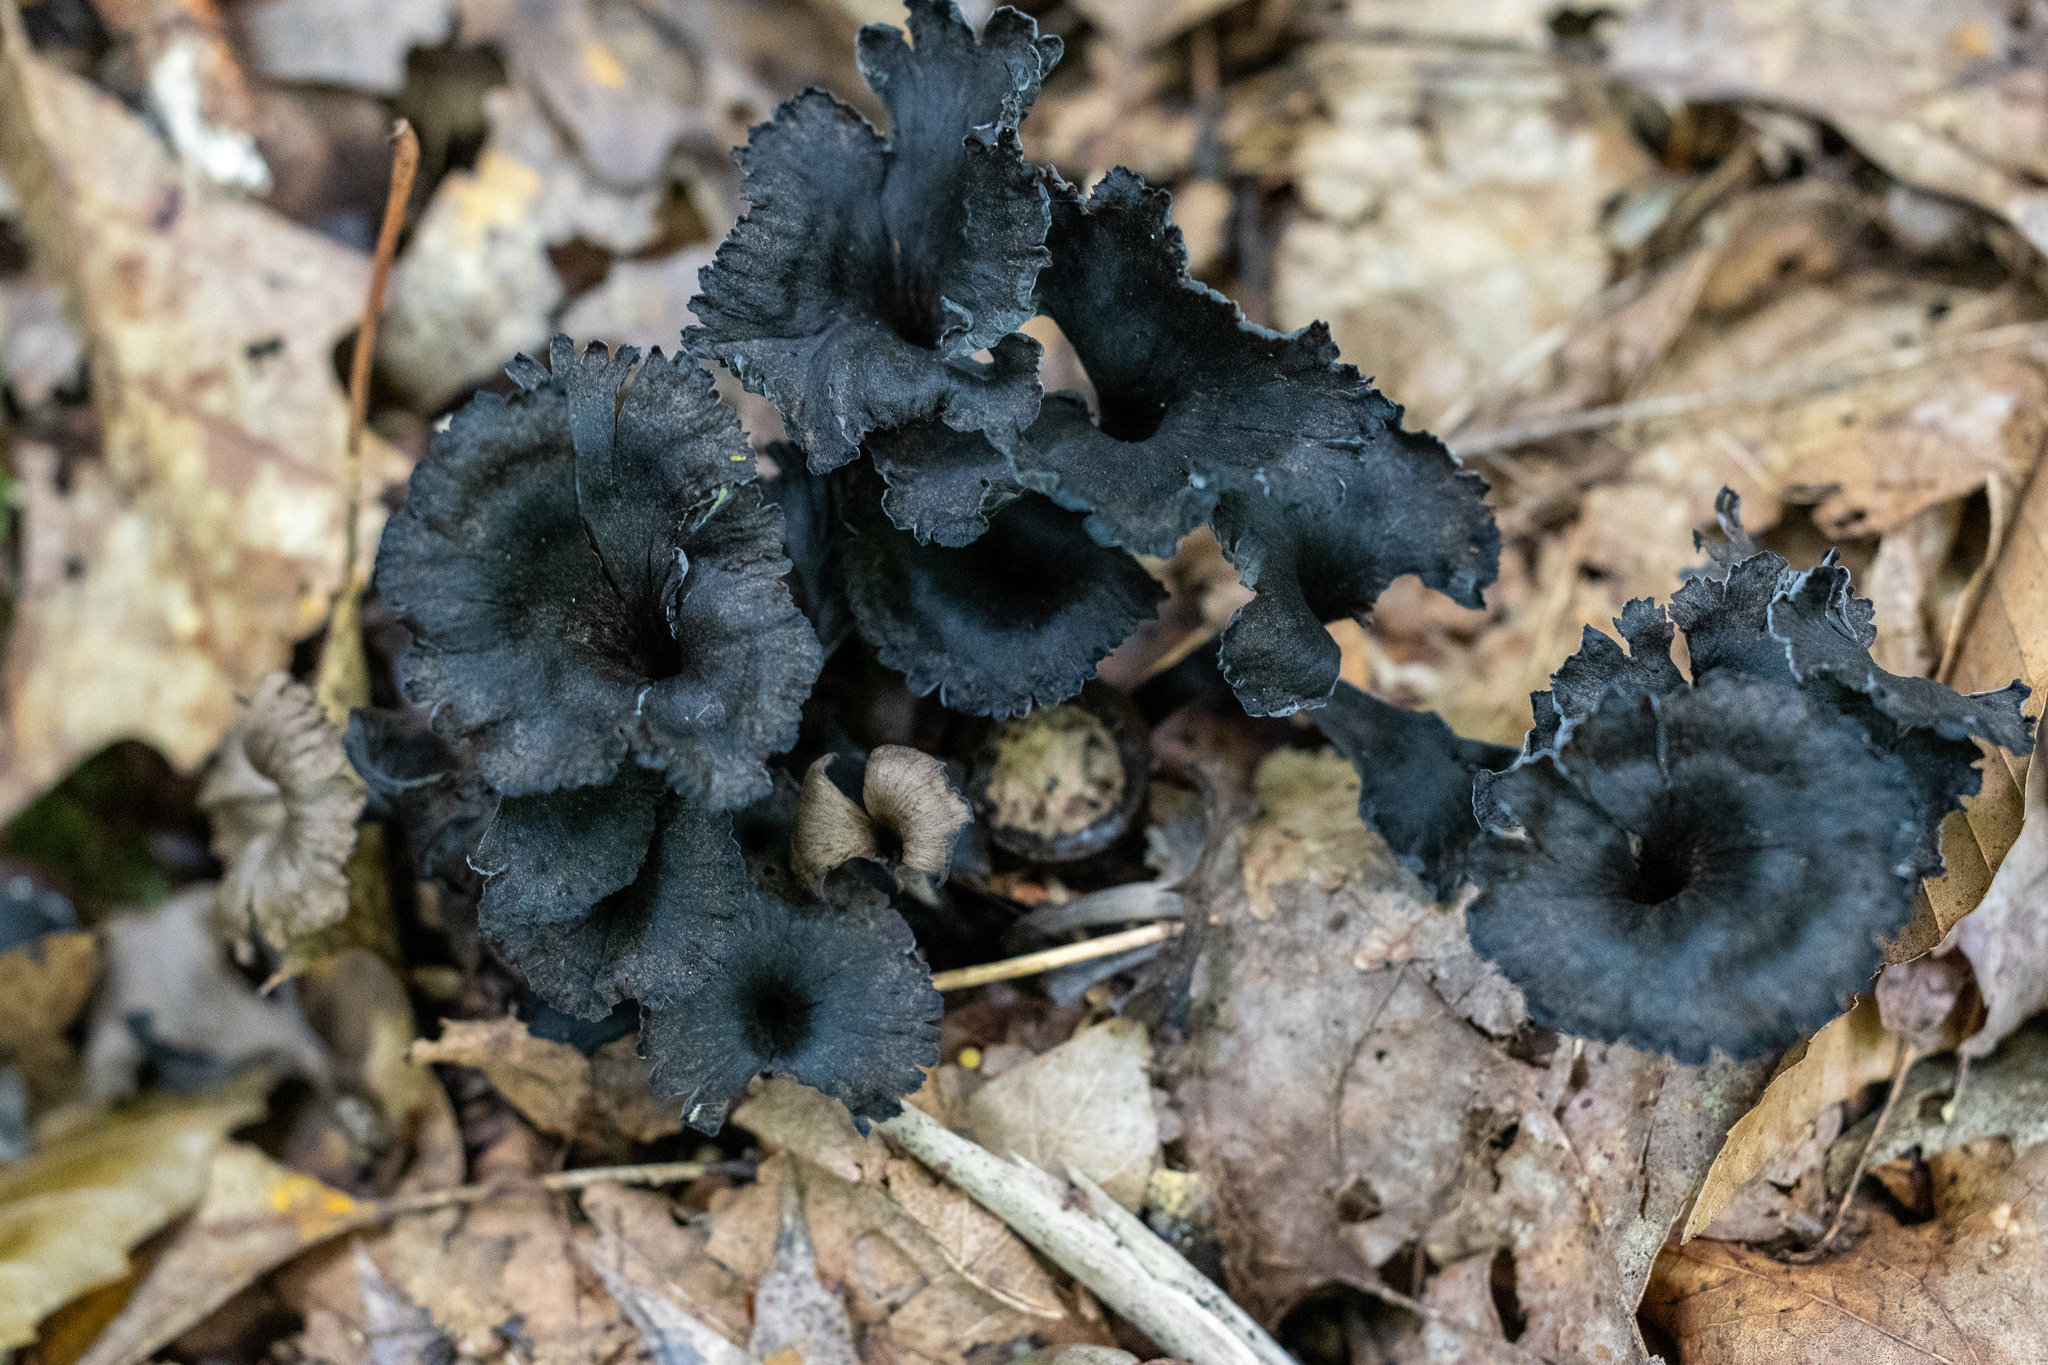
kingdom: Fungi
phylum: Basidiomycota
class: Agaricomycetes
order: Cantharellales
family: Hydnaceae
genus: Cantharellus
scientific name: Cantharellus cinereus
